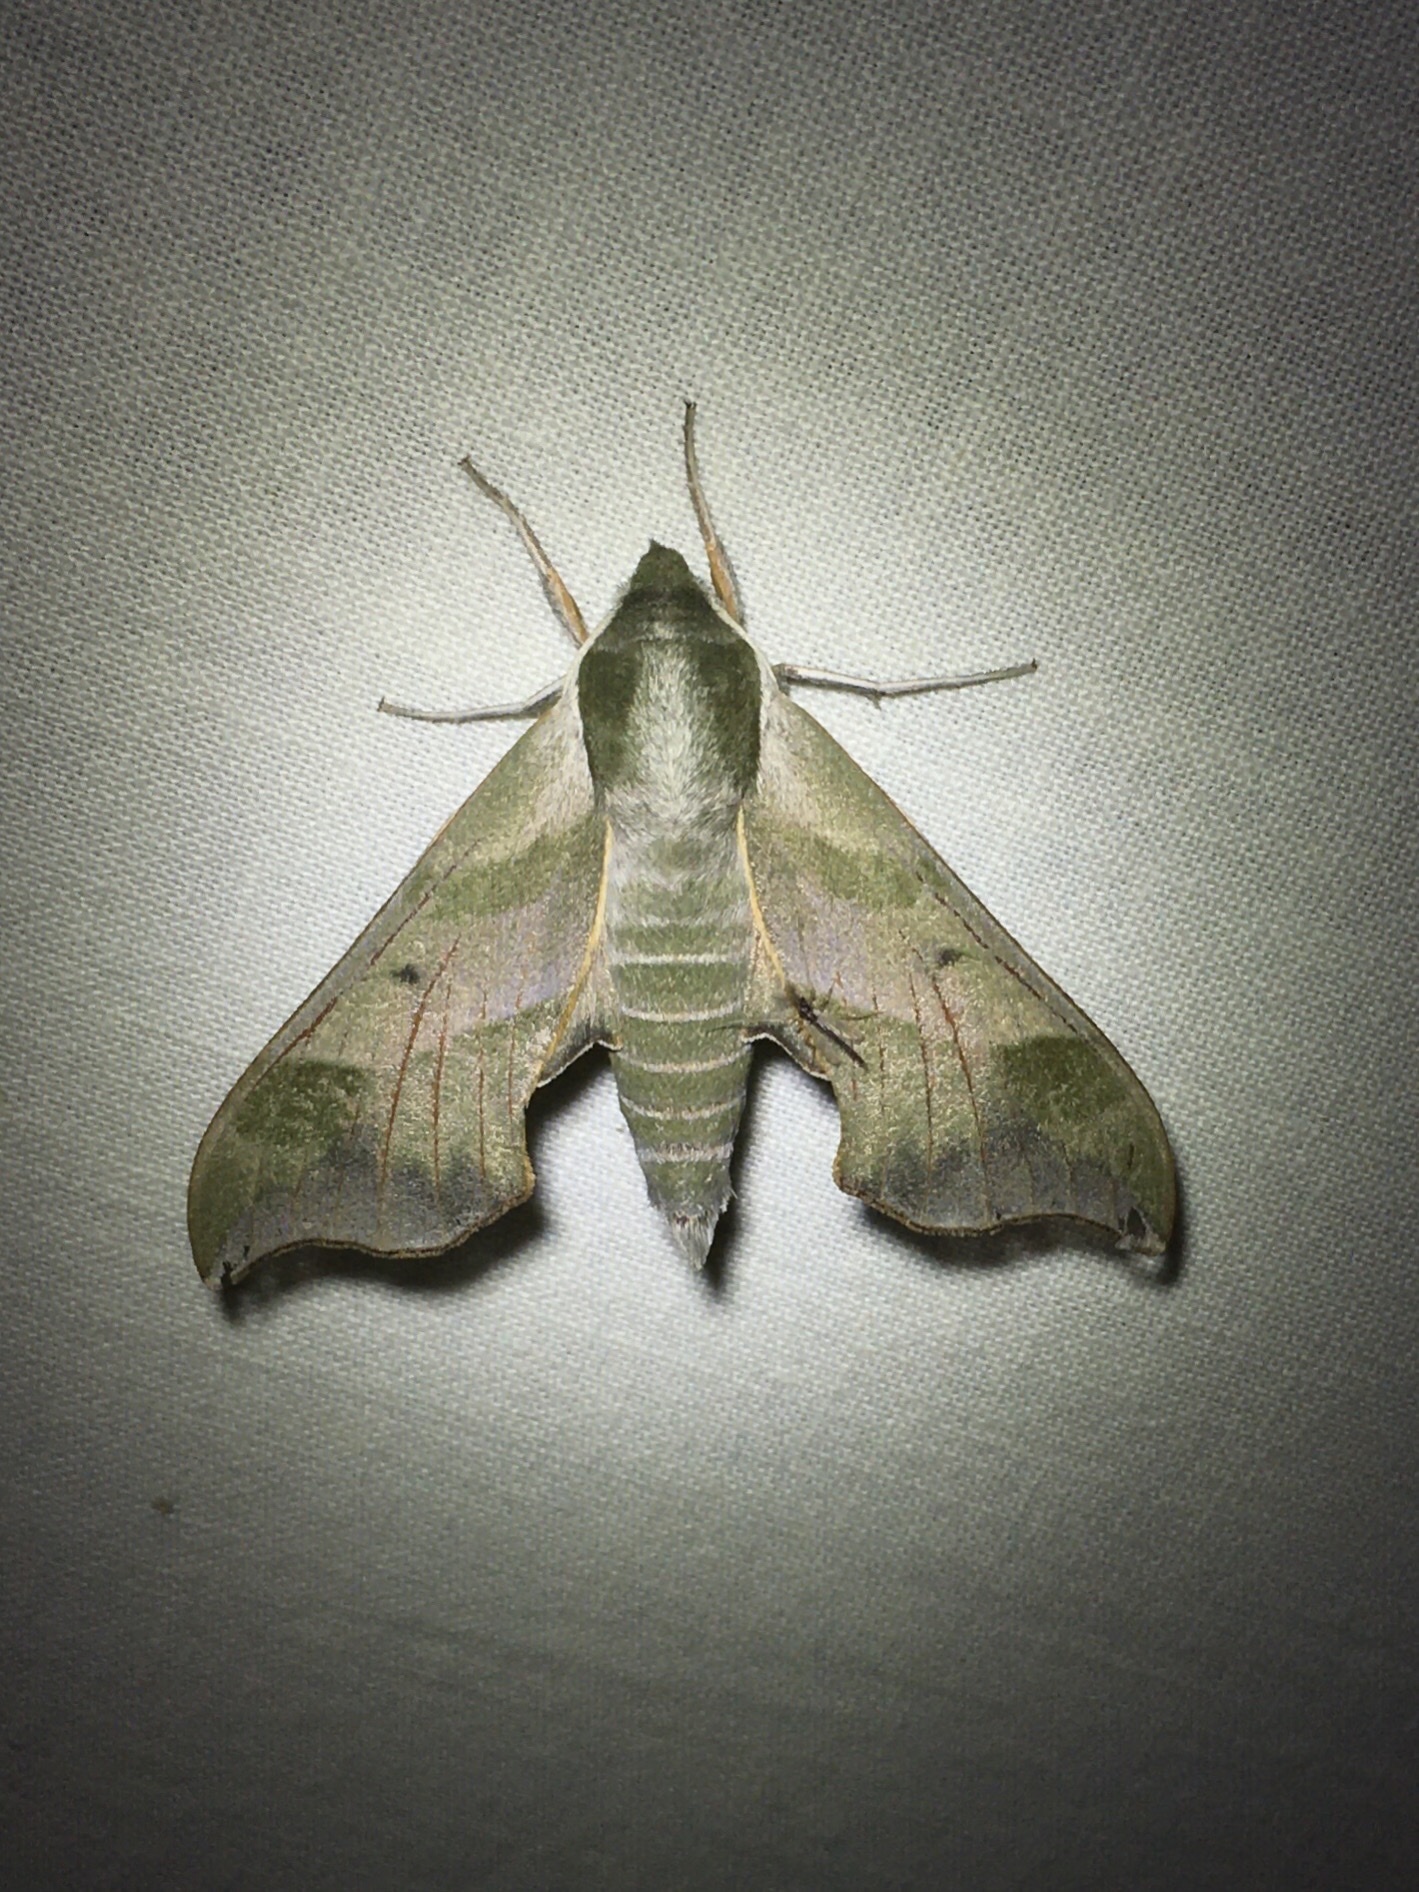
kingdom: Animalia
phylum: Arthropoda
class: Insecta
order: Lepidoptera
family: Sphingidae
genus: Darapsa
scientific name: Darapsa myron
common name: Hog sphinx
